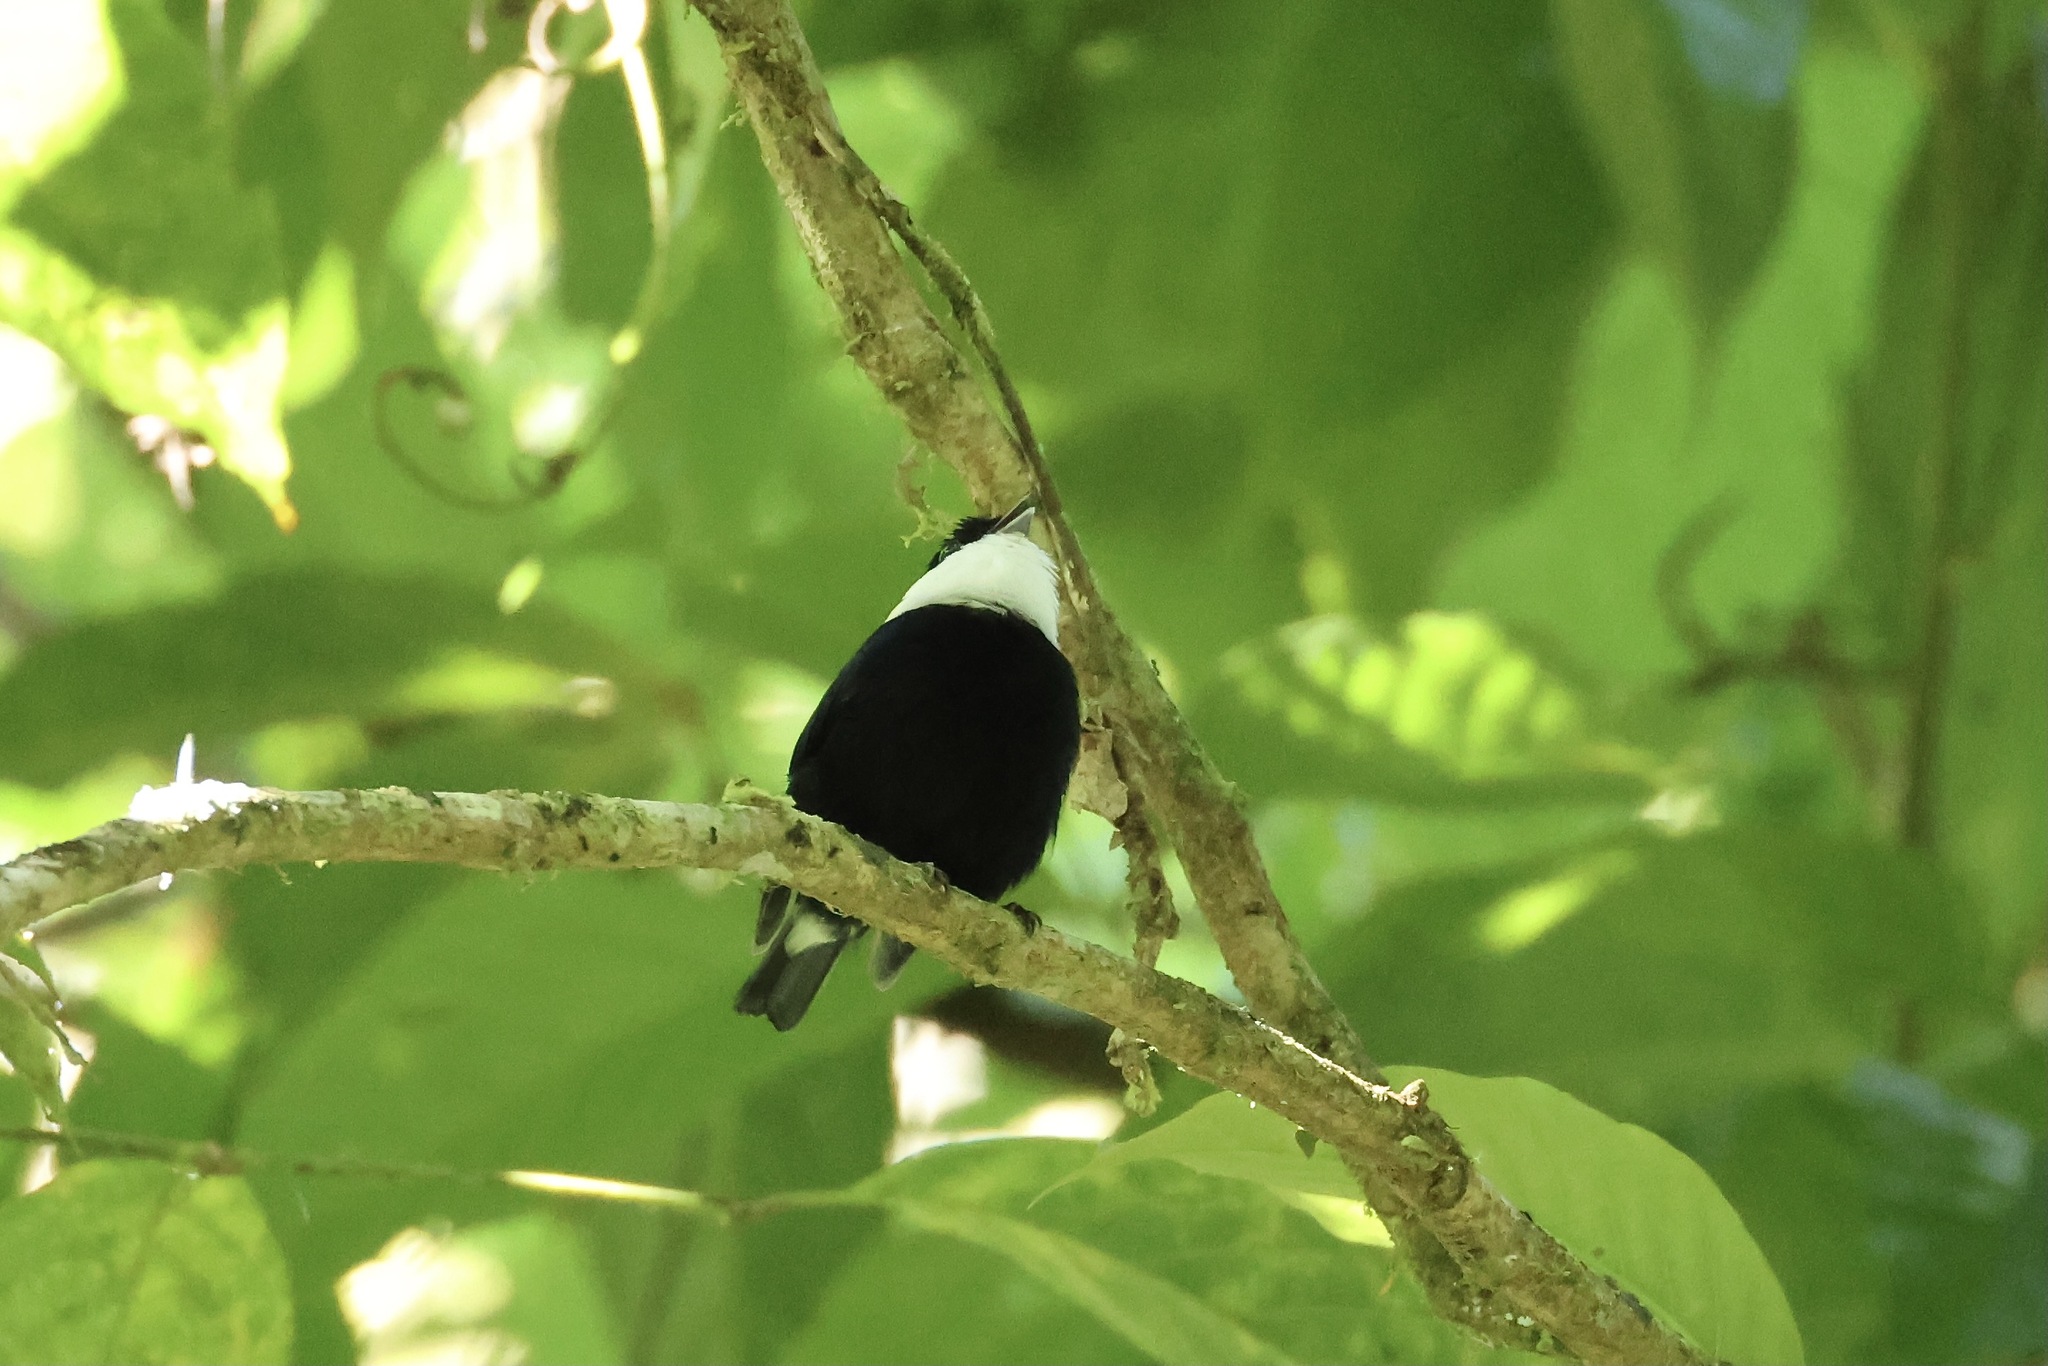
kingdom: Animalia
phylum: Chordata
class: Aves
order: Passeriformes
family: Pipridae
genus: Corapipo
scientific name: Corapipo altera
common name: White-ruffed manakin
